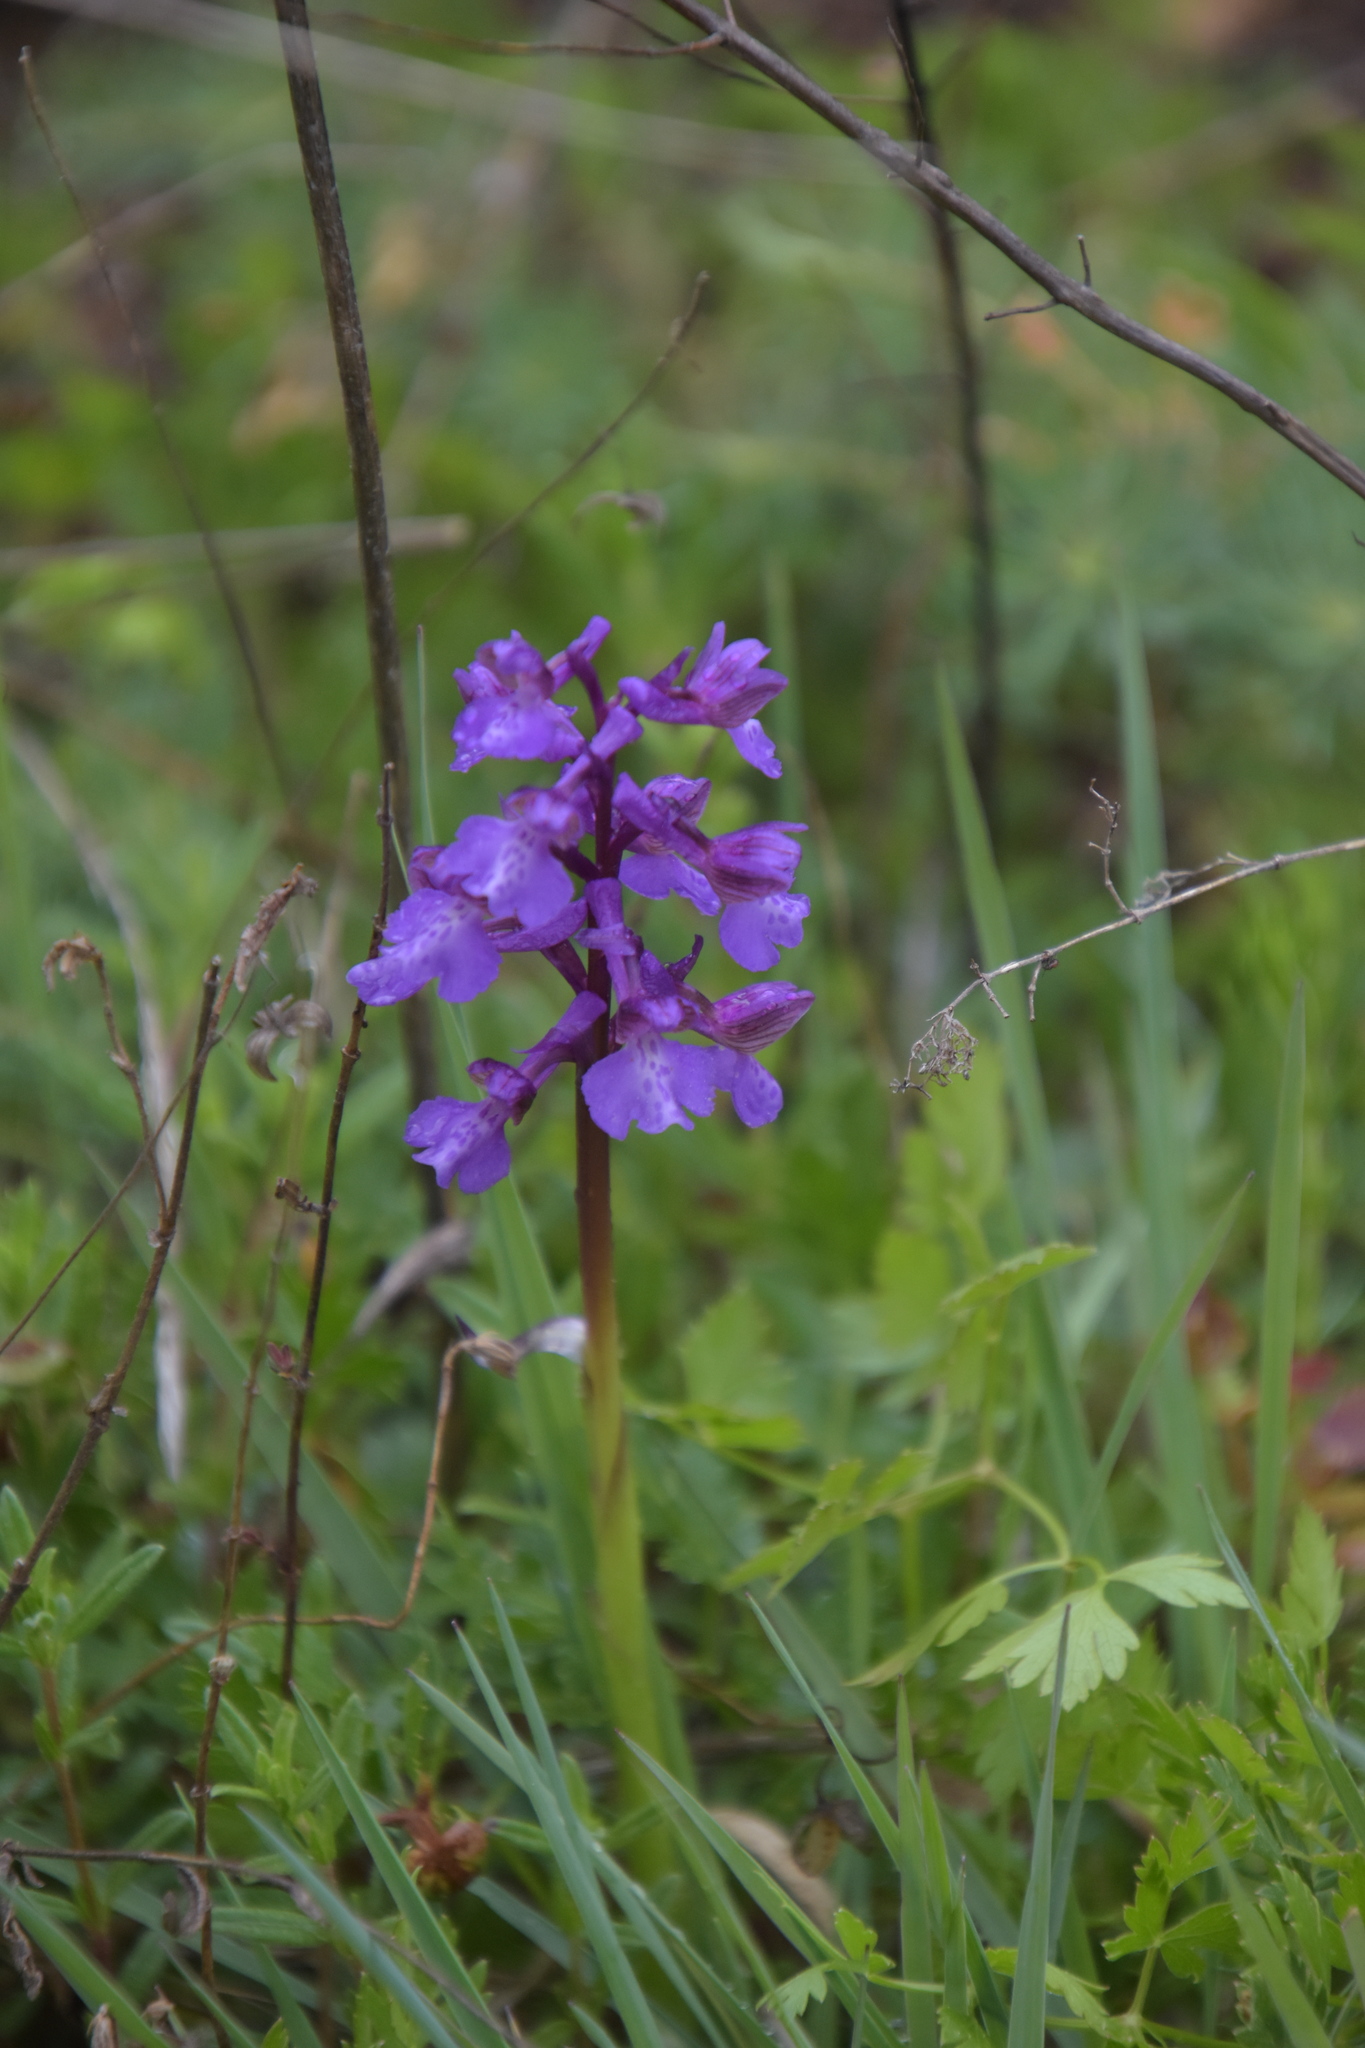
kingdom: Plantae
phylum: Tracheophyta
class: Liliopsida
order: Asparagales
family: Orchidaceae
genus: Anacamptis
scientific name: Anacamptis morio
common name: Green-winged orchid
